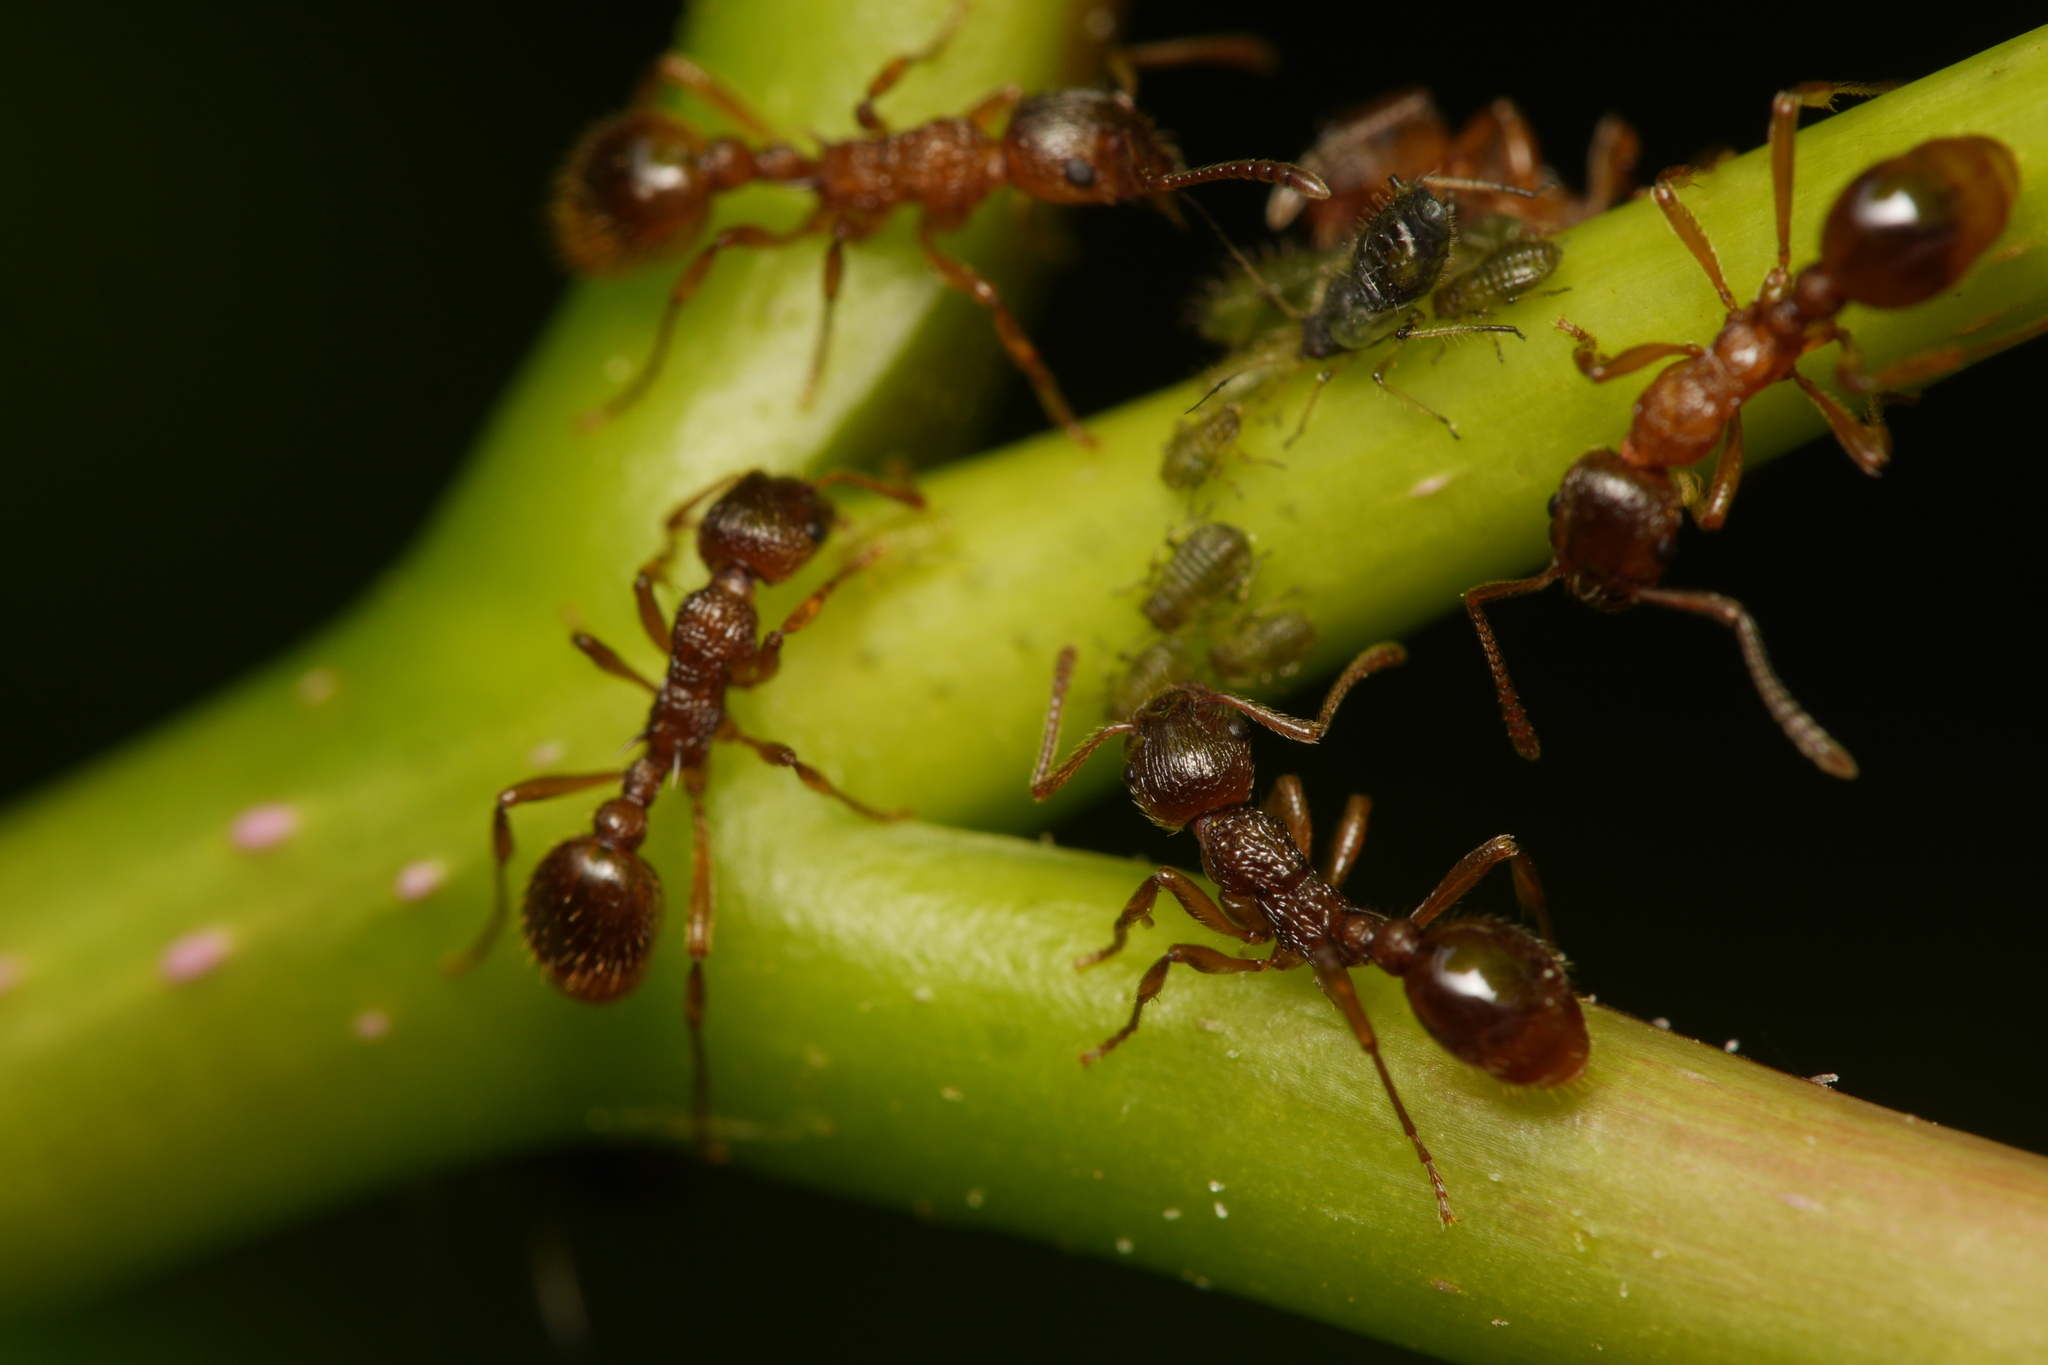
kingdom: Animalia
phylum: Arthropoda
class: Insecta
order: Hymenoptera
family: Formicidae
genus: Myrmica
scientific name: Myrmica ruginodis
